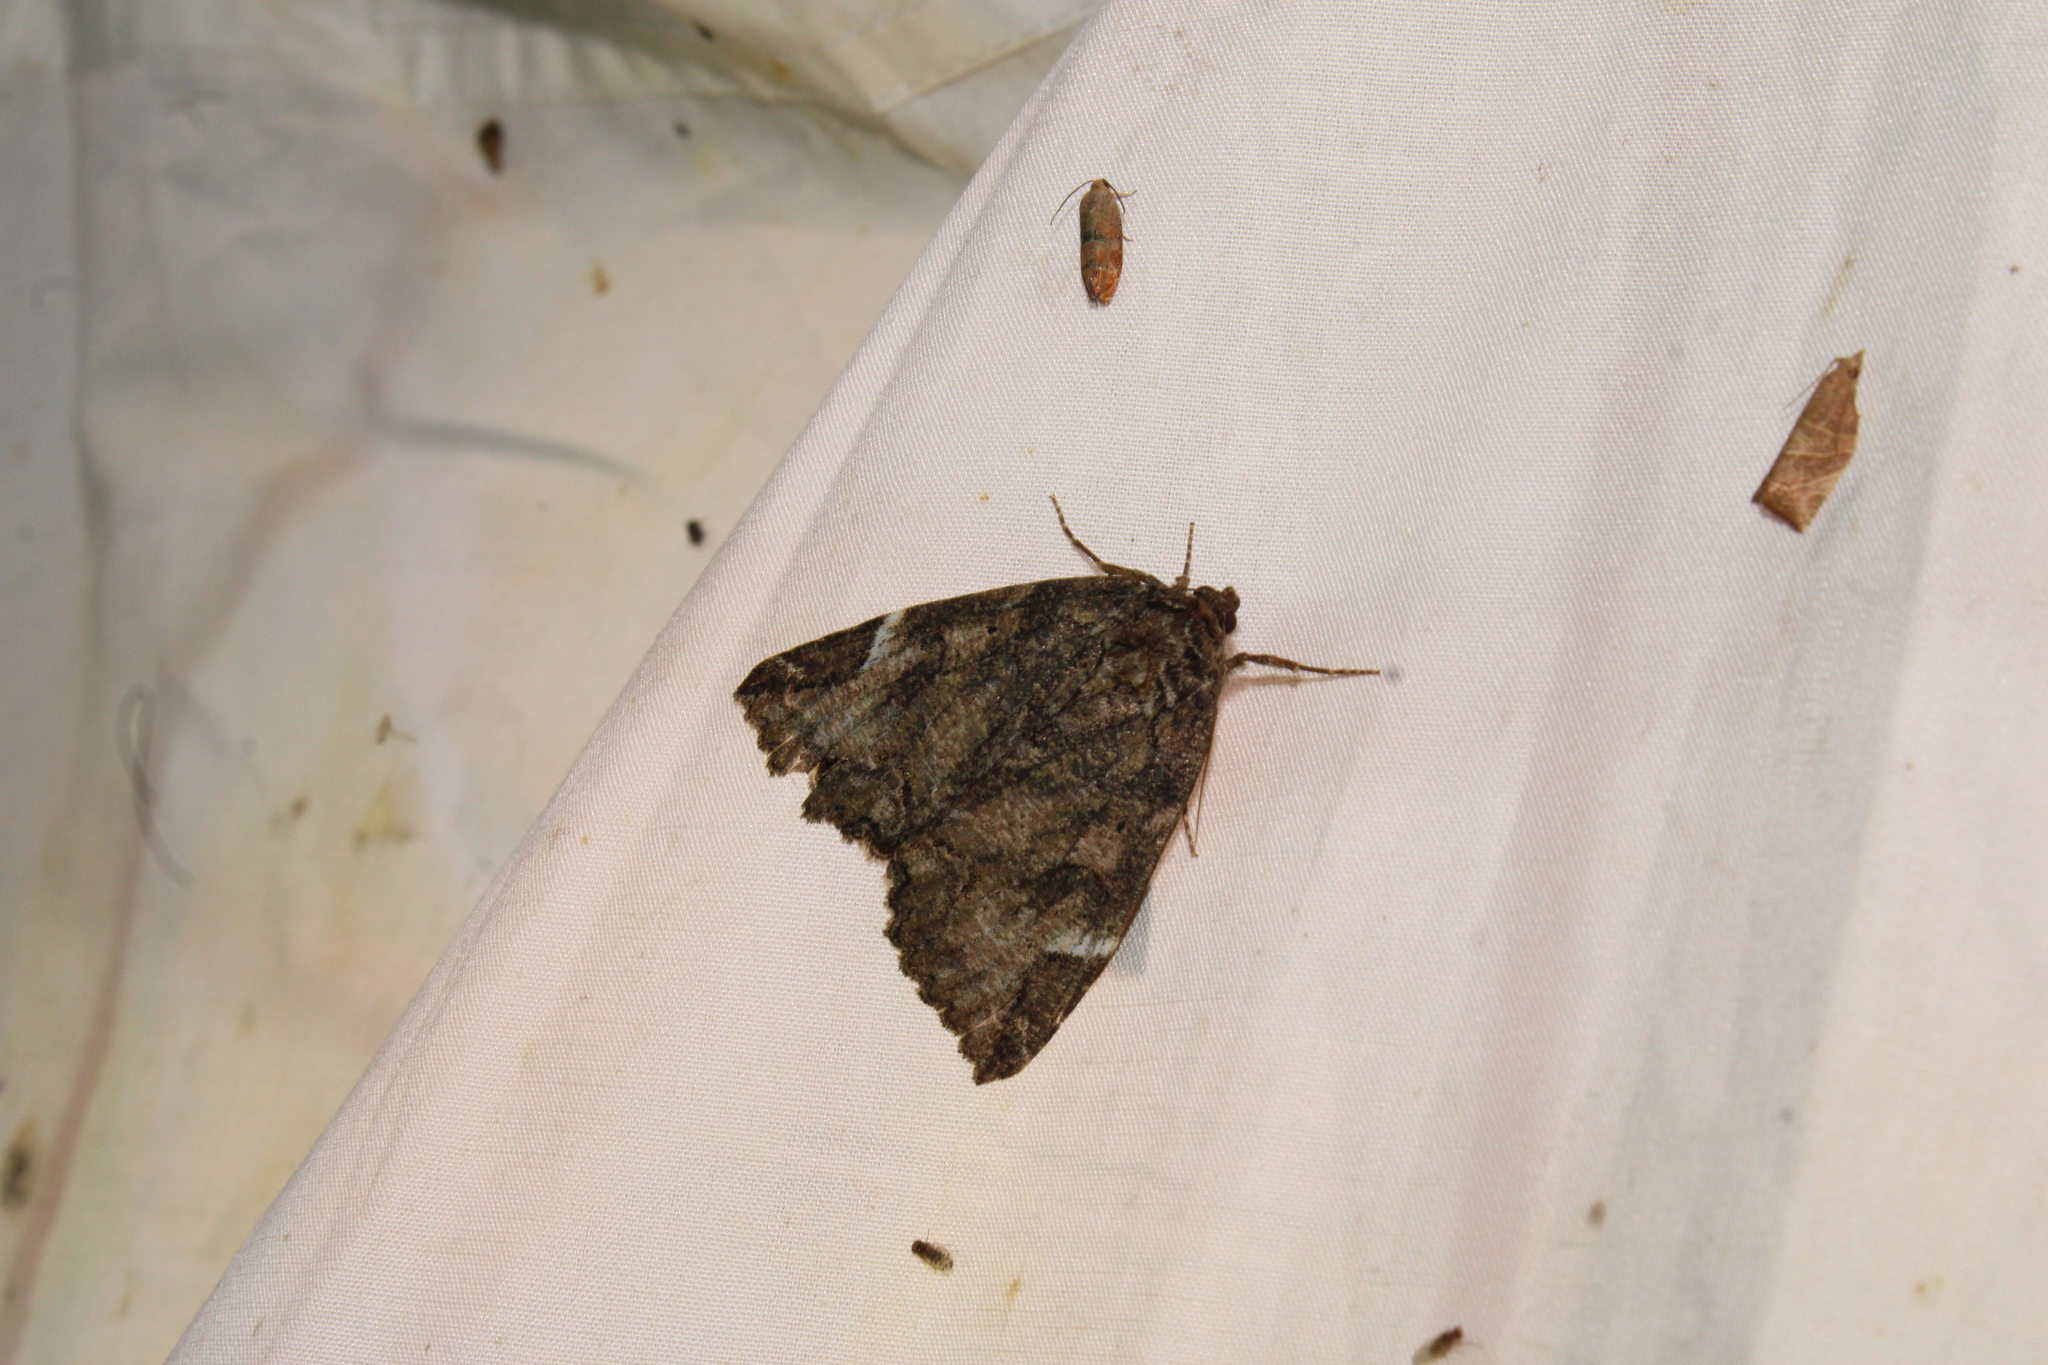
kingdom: Animalia
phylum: Arthropoda
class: Insecta
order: Lepidoptera
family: Erebidae
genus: Euparthenos
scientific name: Euparthenos nubilis
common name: Locust underwing
